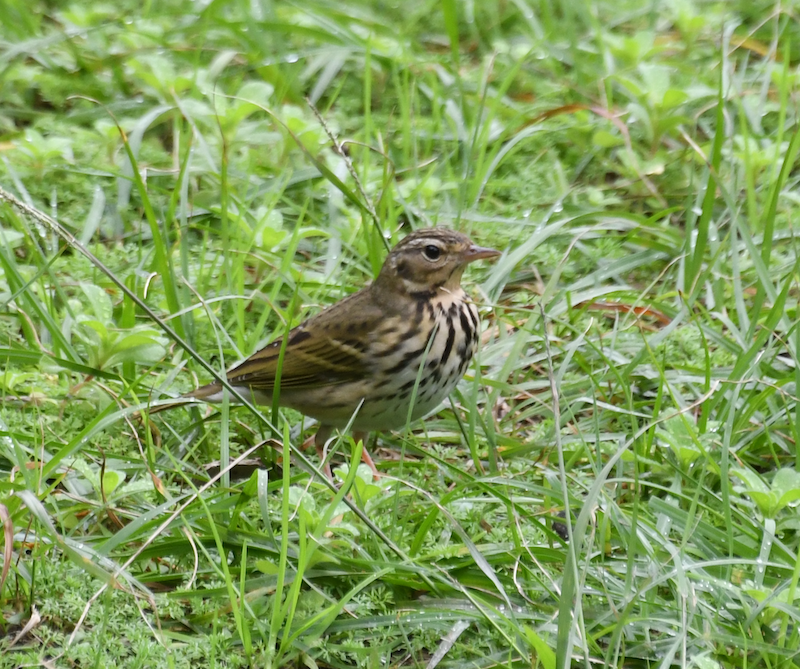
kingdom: Animalia
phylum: Chordata
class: Aves
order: Passeriformes
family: Motacillidae
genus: Anthus
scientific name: Anthus hodgsoni
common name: Olive-backed pipit
